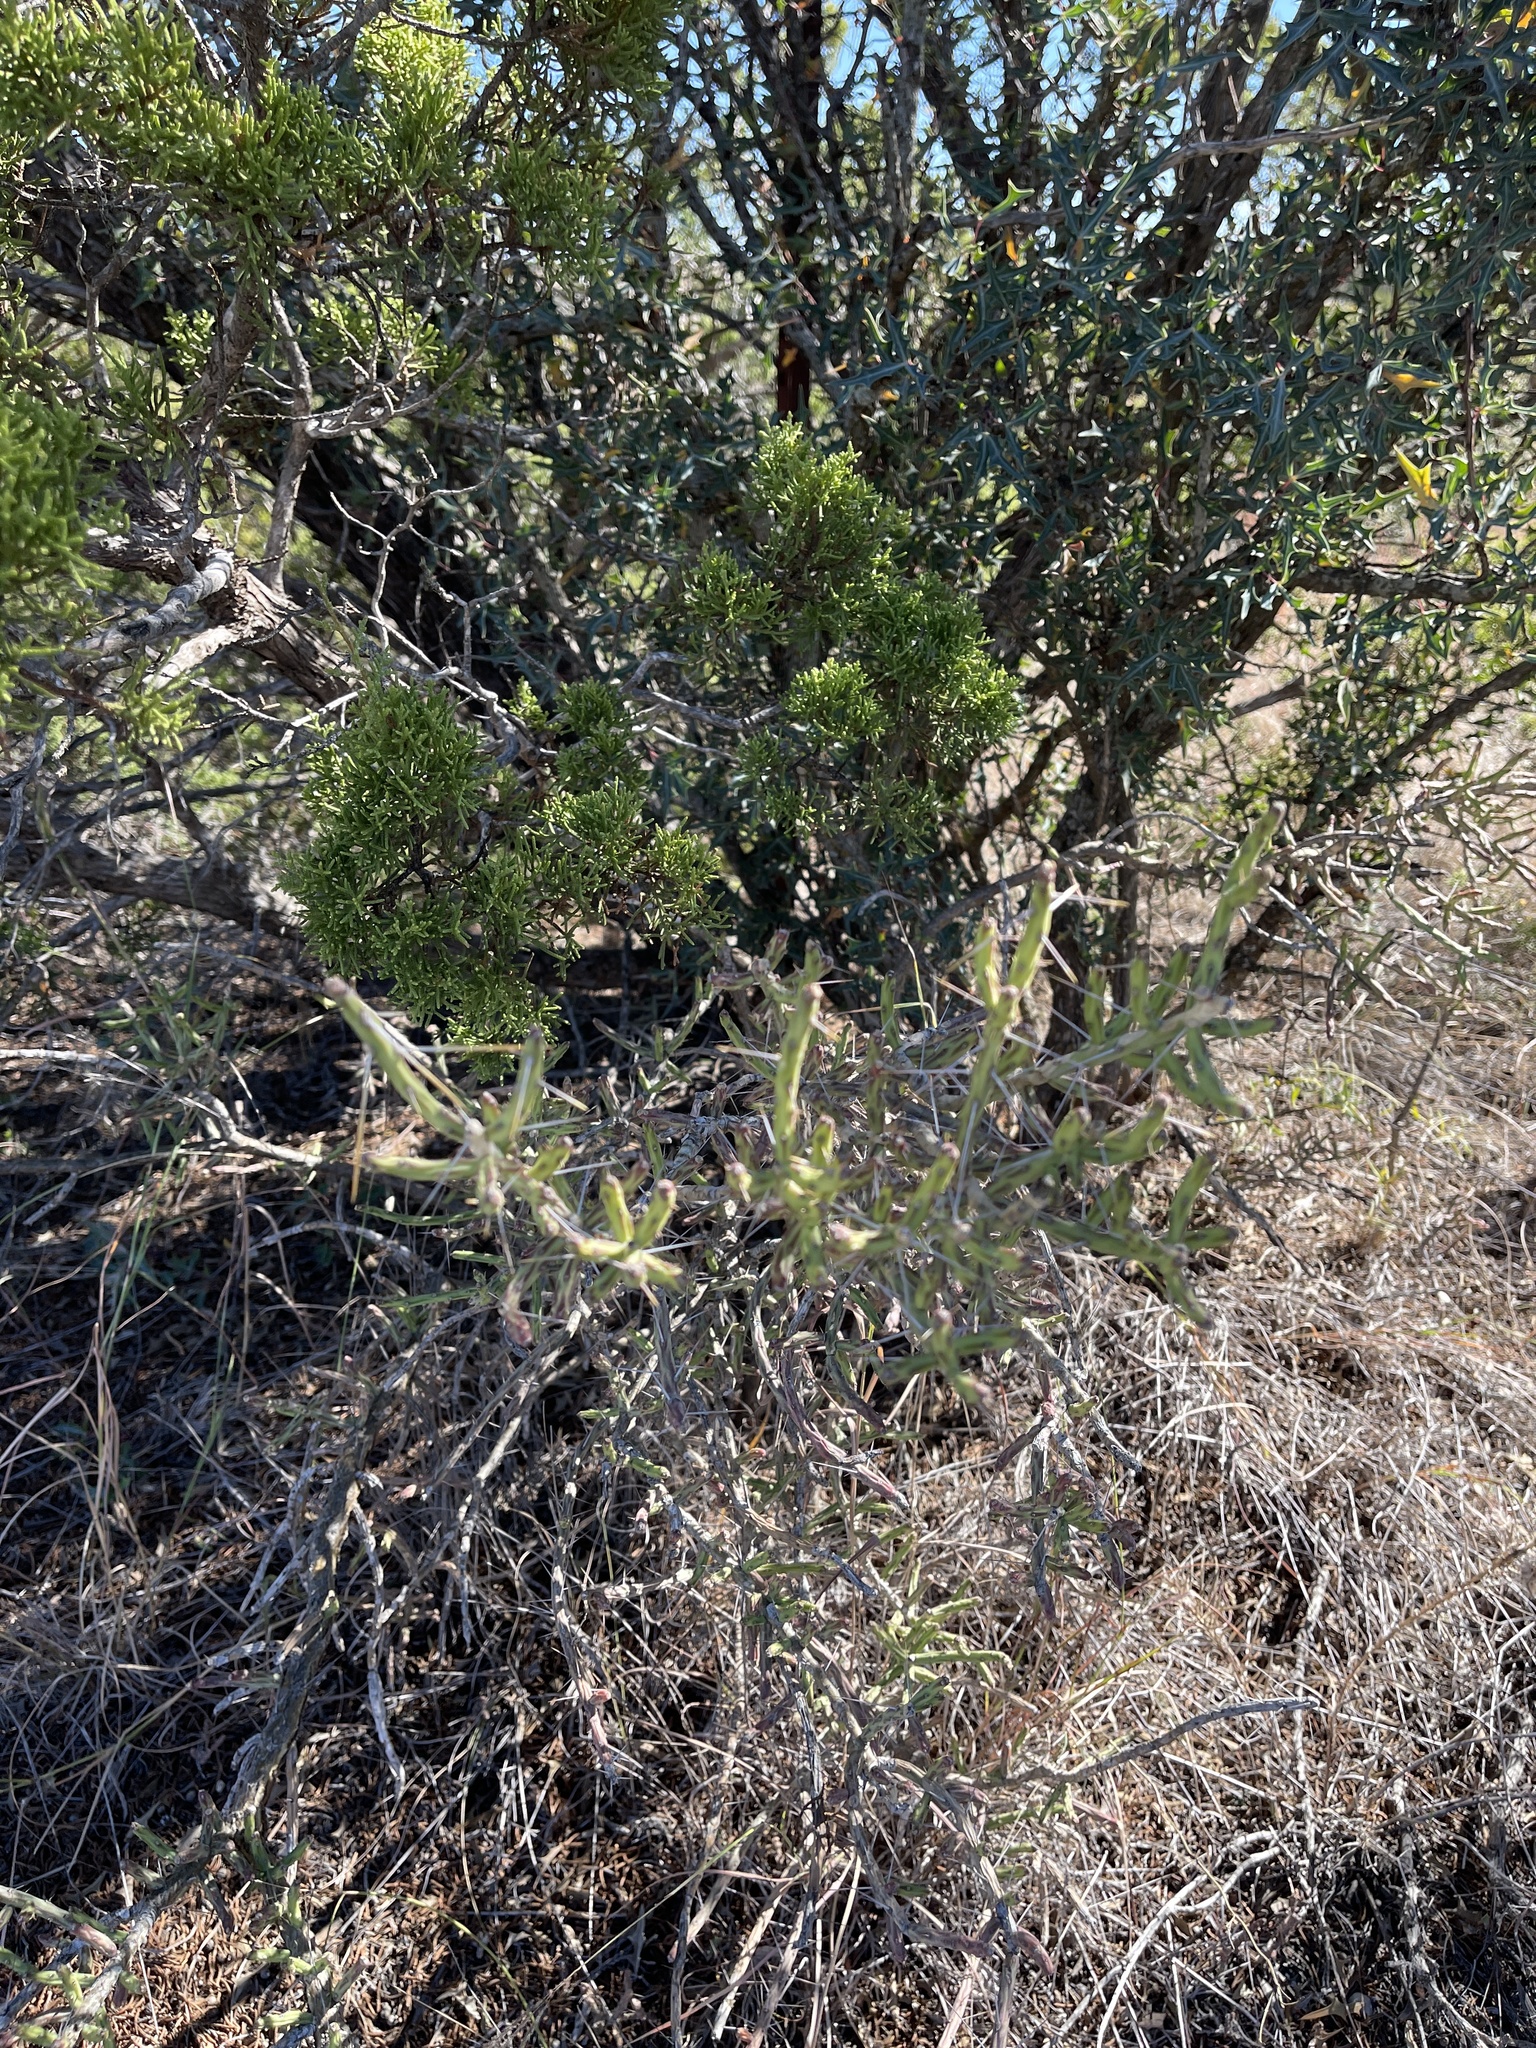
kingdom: Plantae
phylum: Tracheophyta
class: Magnoliopsida
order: Caryophyllales
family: Cactaceae
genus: Cylindropuntia
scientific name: Cylindropuntia leptocaulis
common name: Christmas cactus
